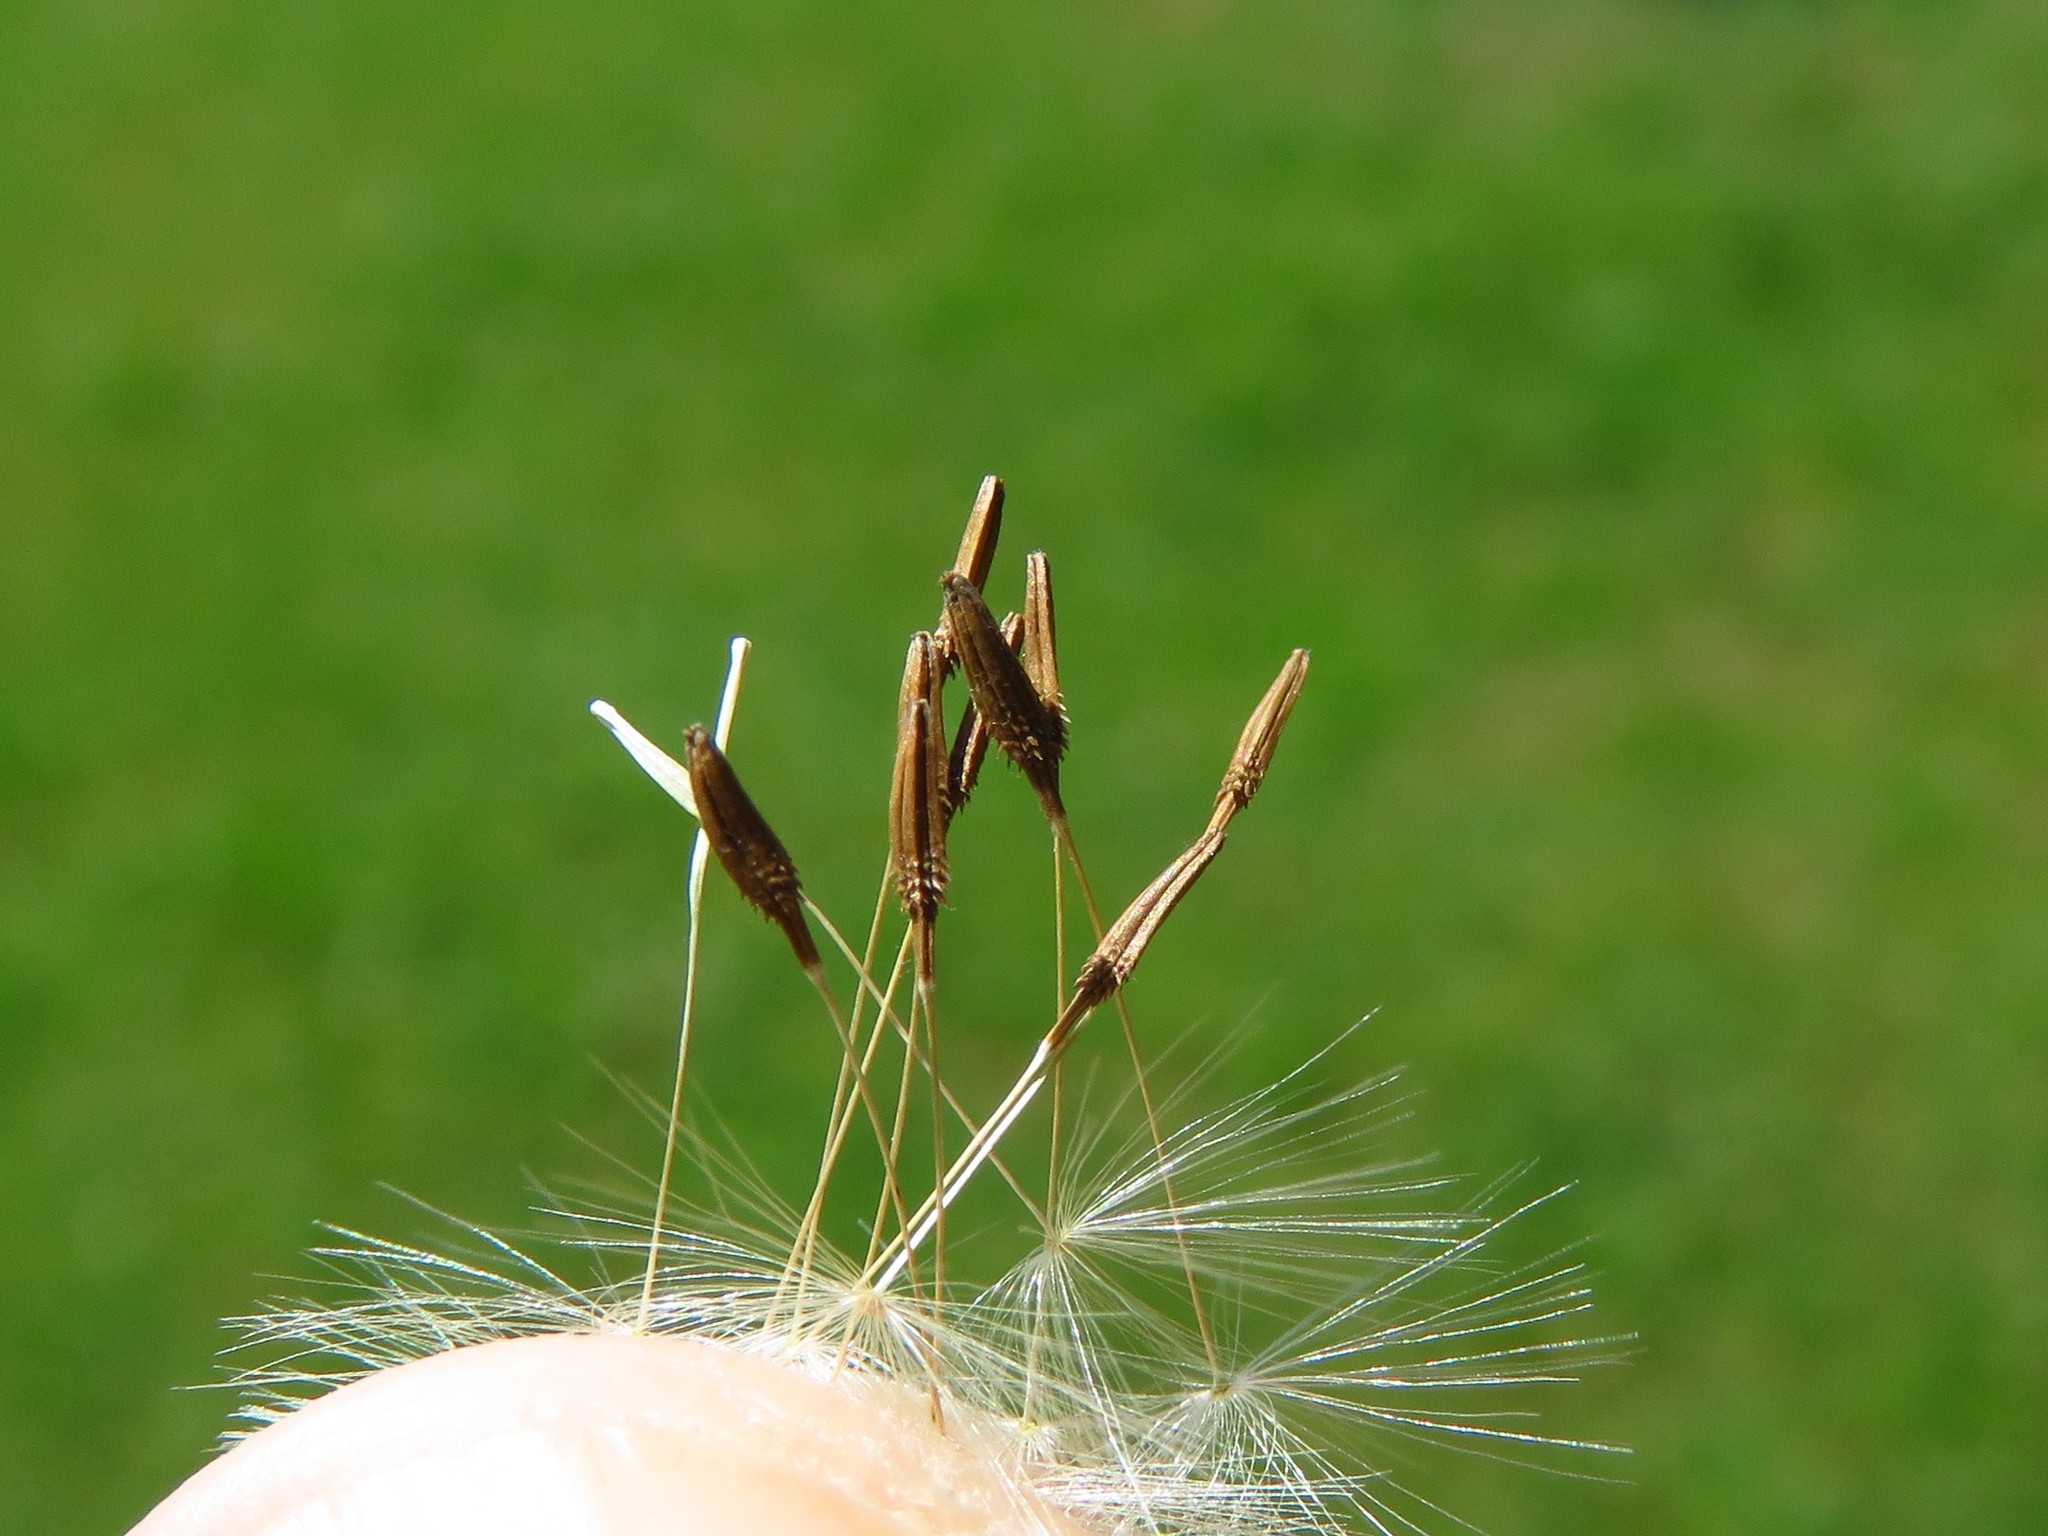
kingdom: Plantae
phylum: Tracheophyta
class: Magnoliopsida
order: Asterales
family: Asteraceae
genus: Taraxacum
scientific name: Taraxacum officinale
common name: Common dandelion
